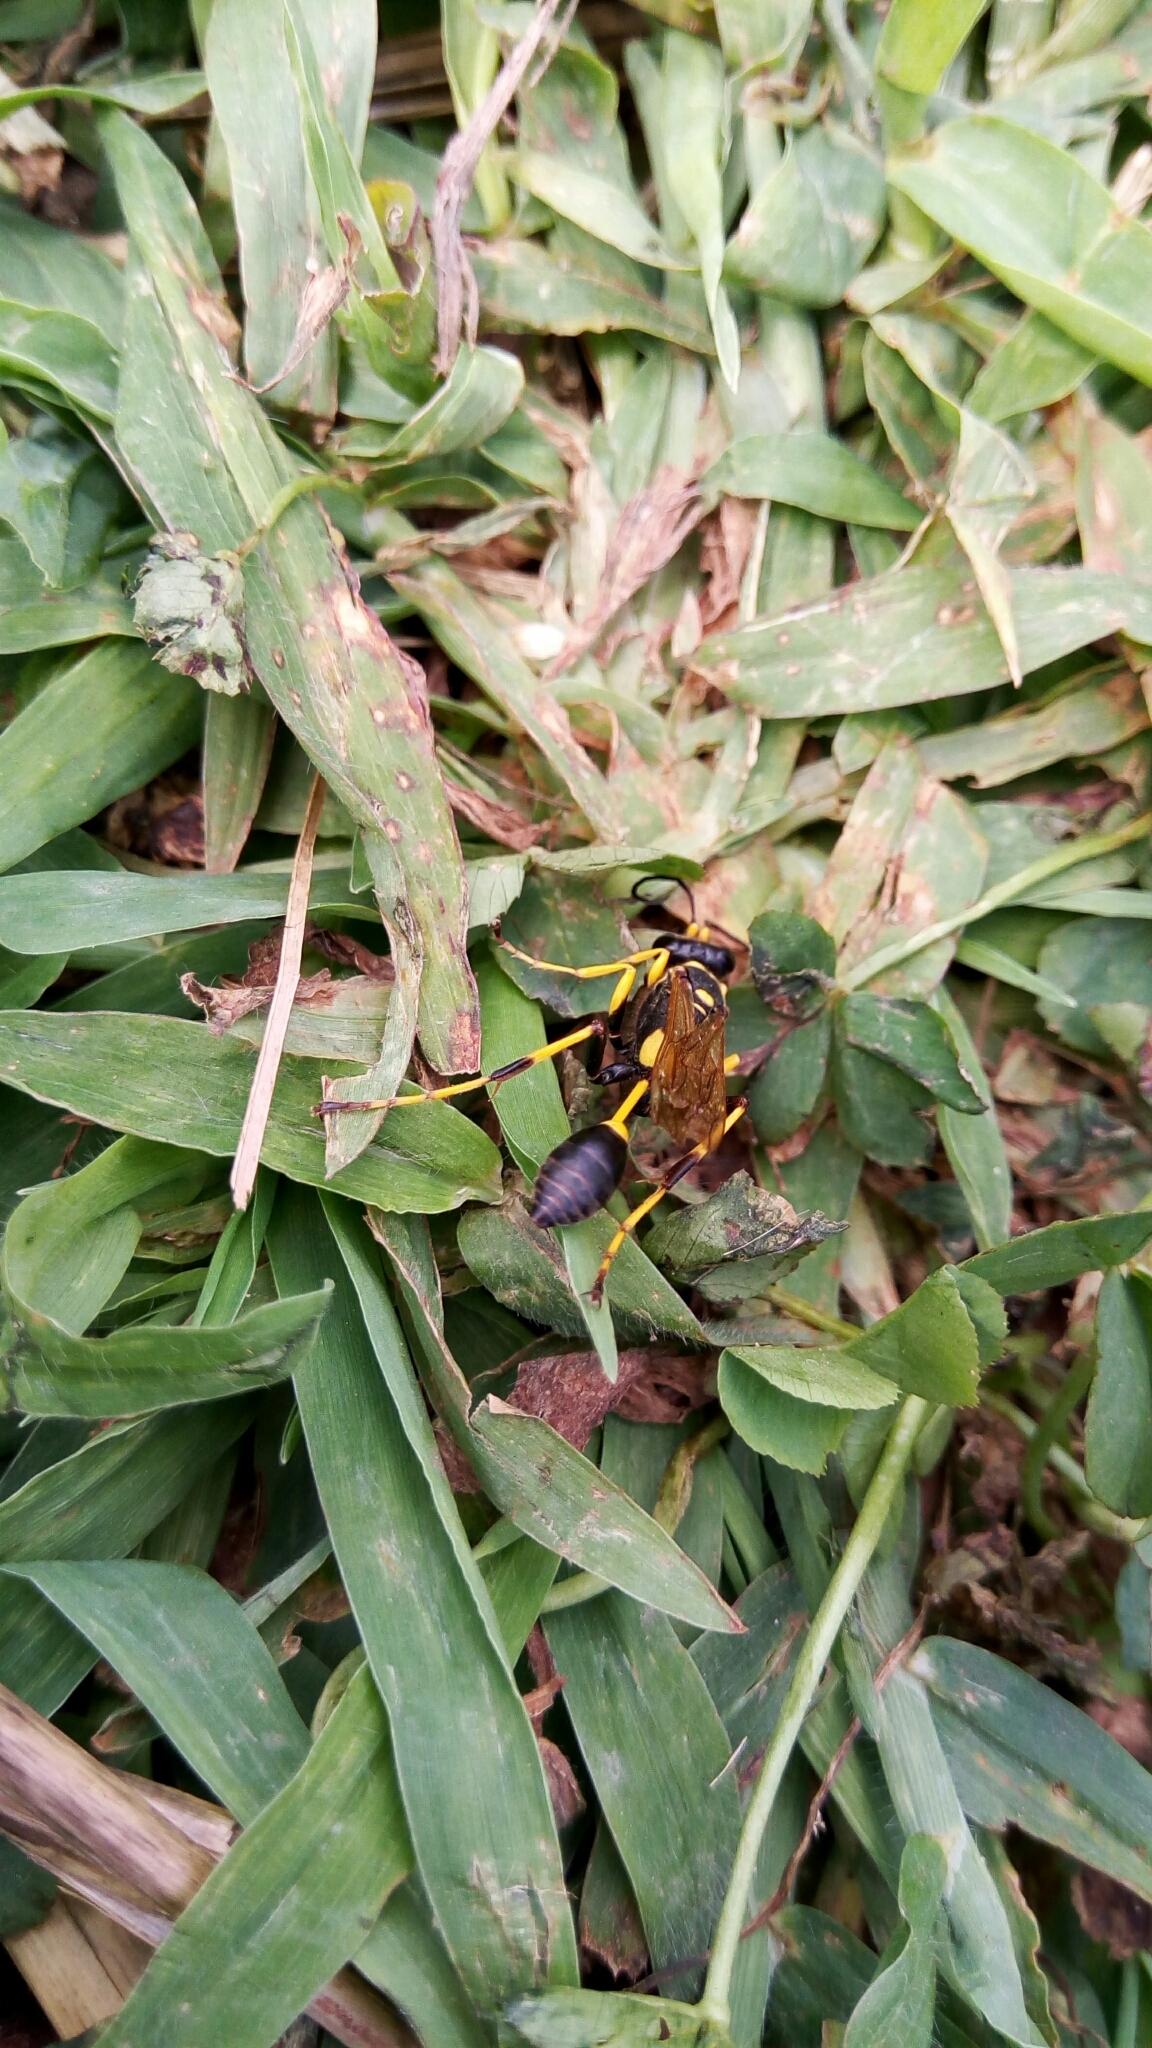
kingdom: Animalia
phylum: Arthropoda
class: Insecta
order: Hymenoptera
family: Sphecidae
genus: Sceliphron
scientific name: Sceliphron caementarium
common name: Mud dauber
